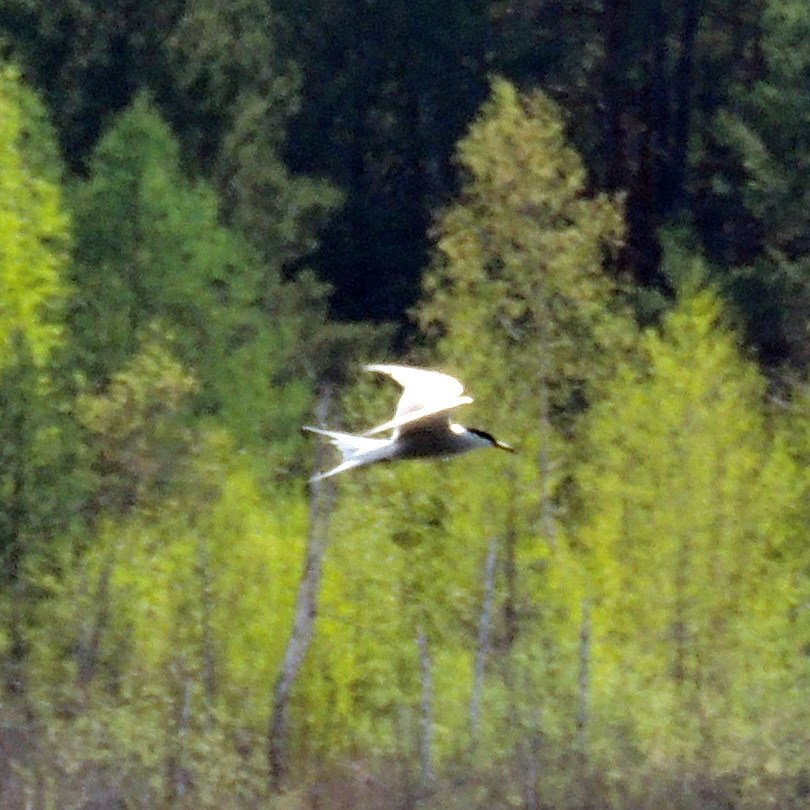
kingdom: Animalia
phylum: Chordata
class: Aves
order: Charadriiformes
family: Laridae
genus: Sterna
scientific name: Sterna hirundo
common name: Common tern
